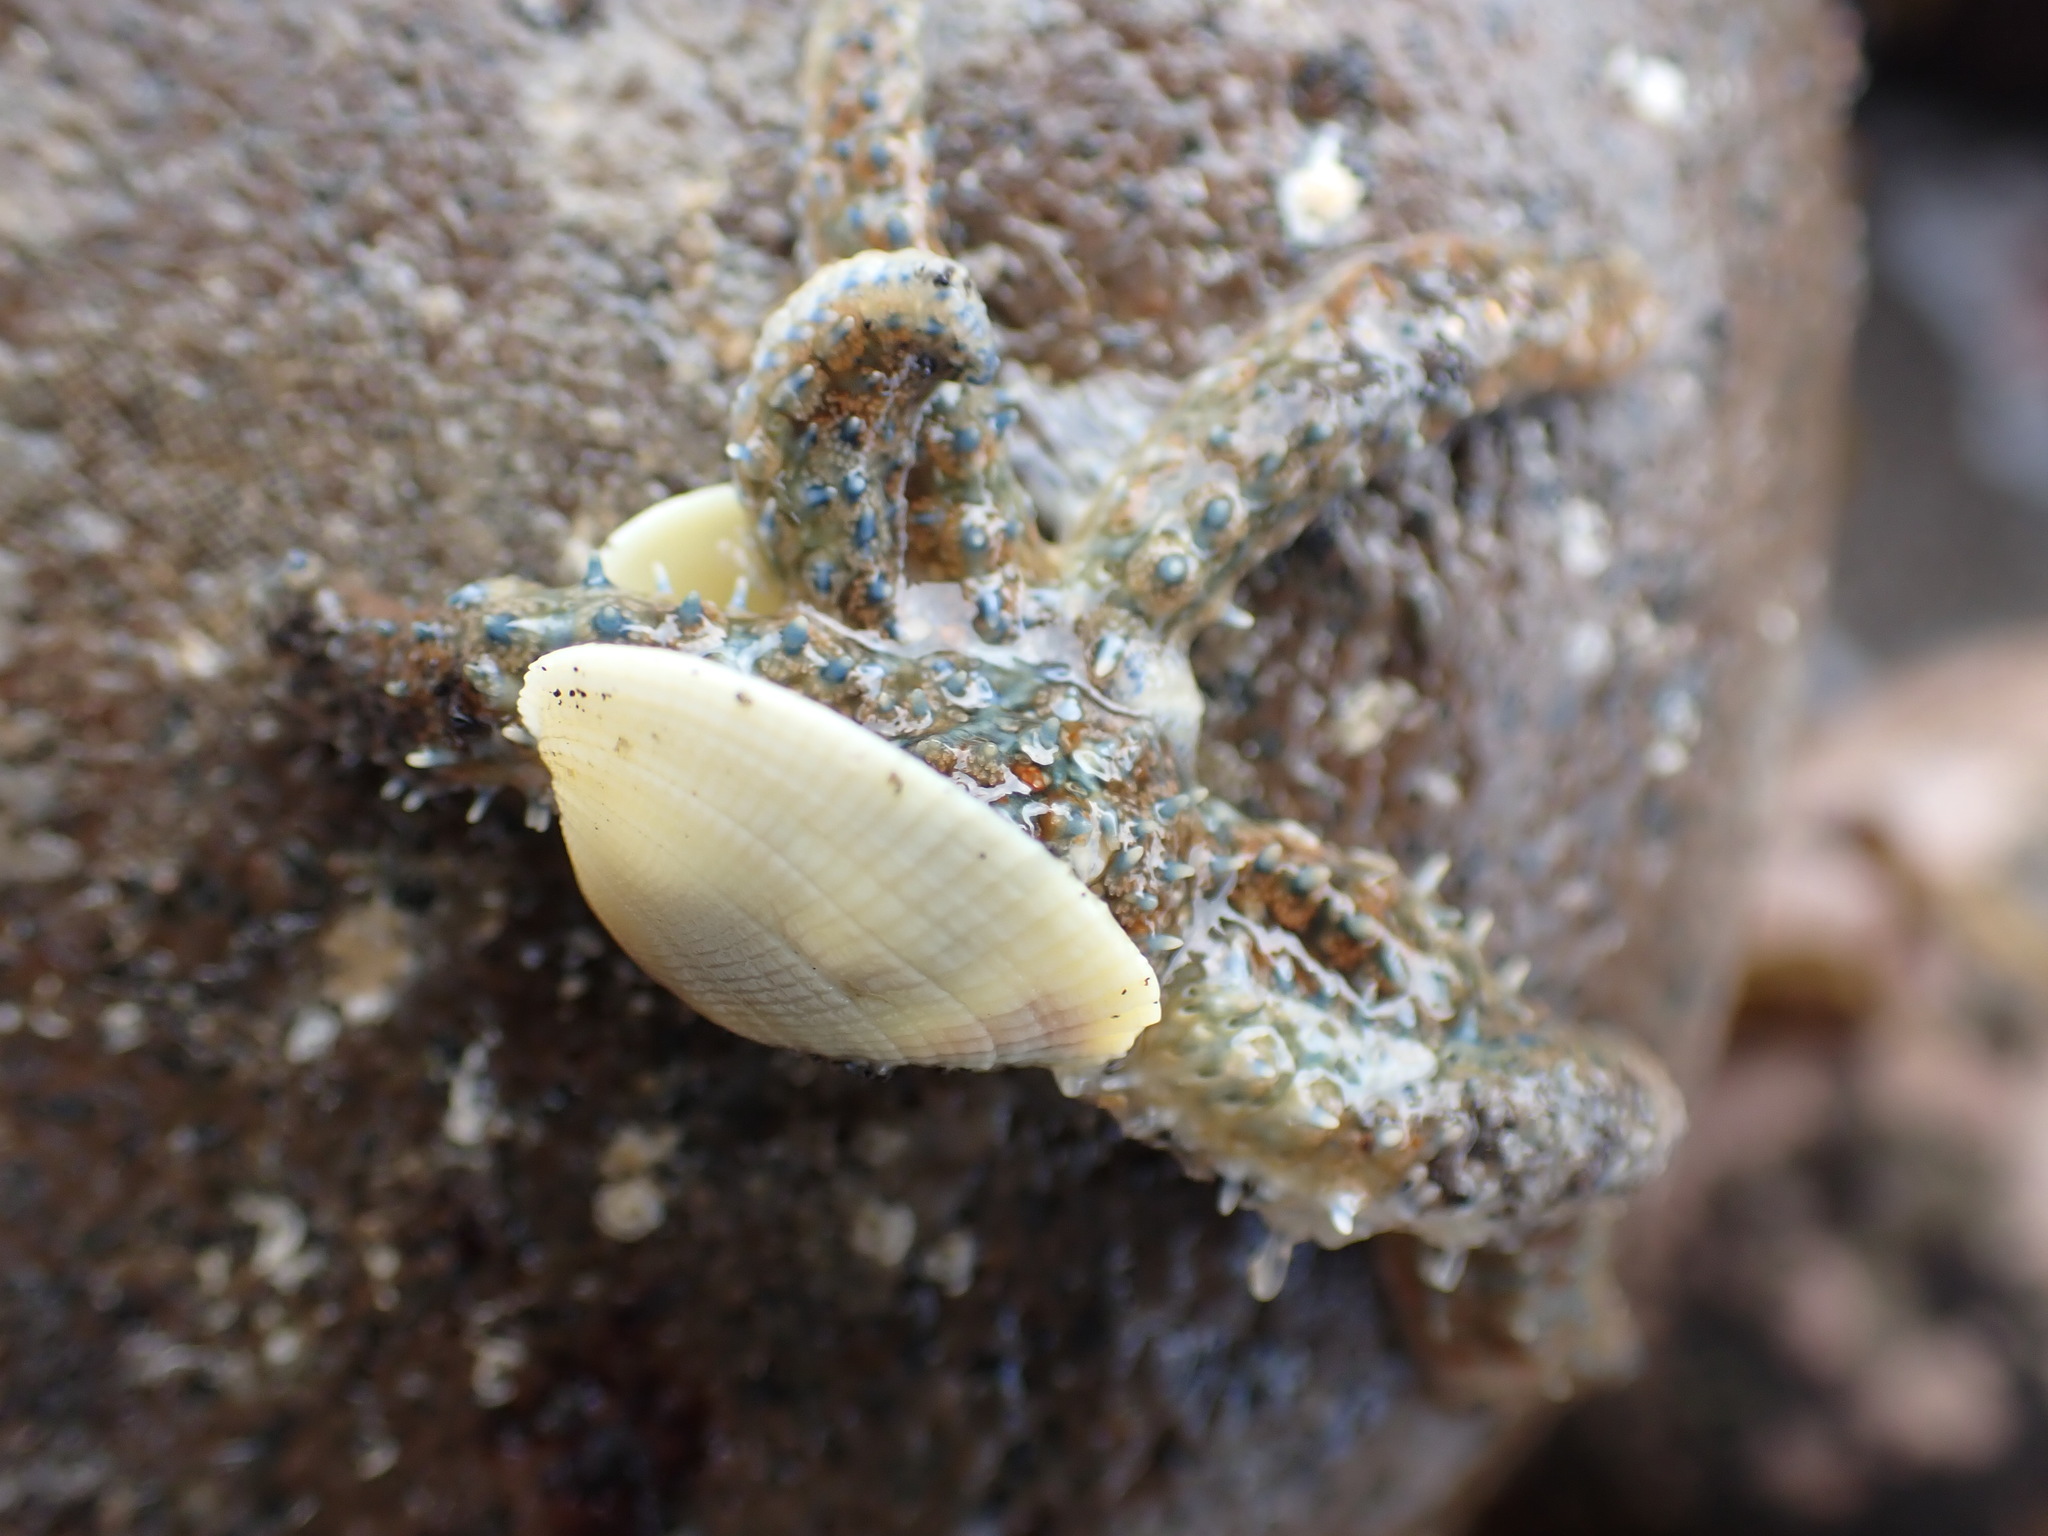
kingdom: Animalia
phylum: Echinodermata
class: Asteroidea
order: Forcipulatida
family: Asteriidae
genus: Coscinasterias
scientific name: Coscinasterias muricata
